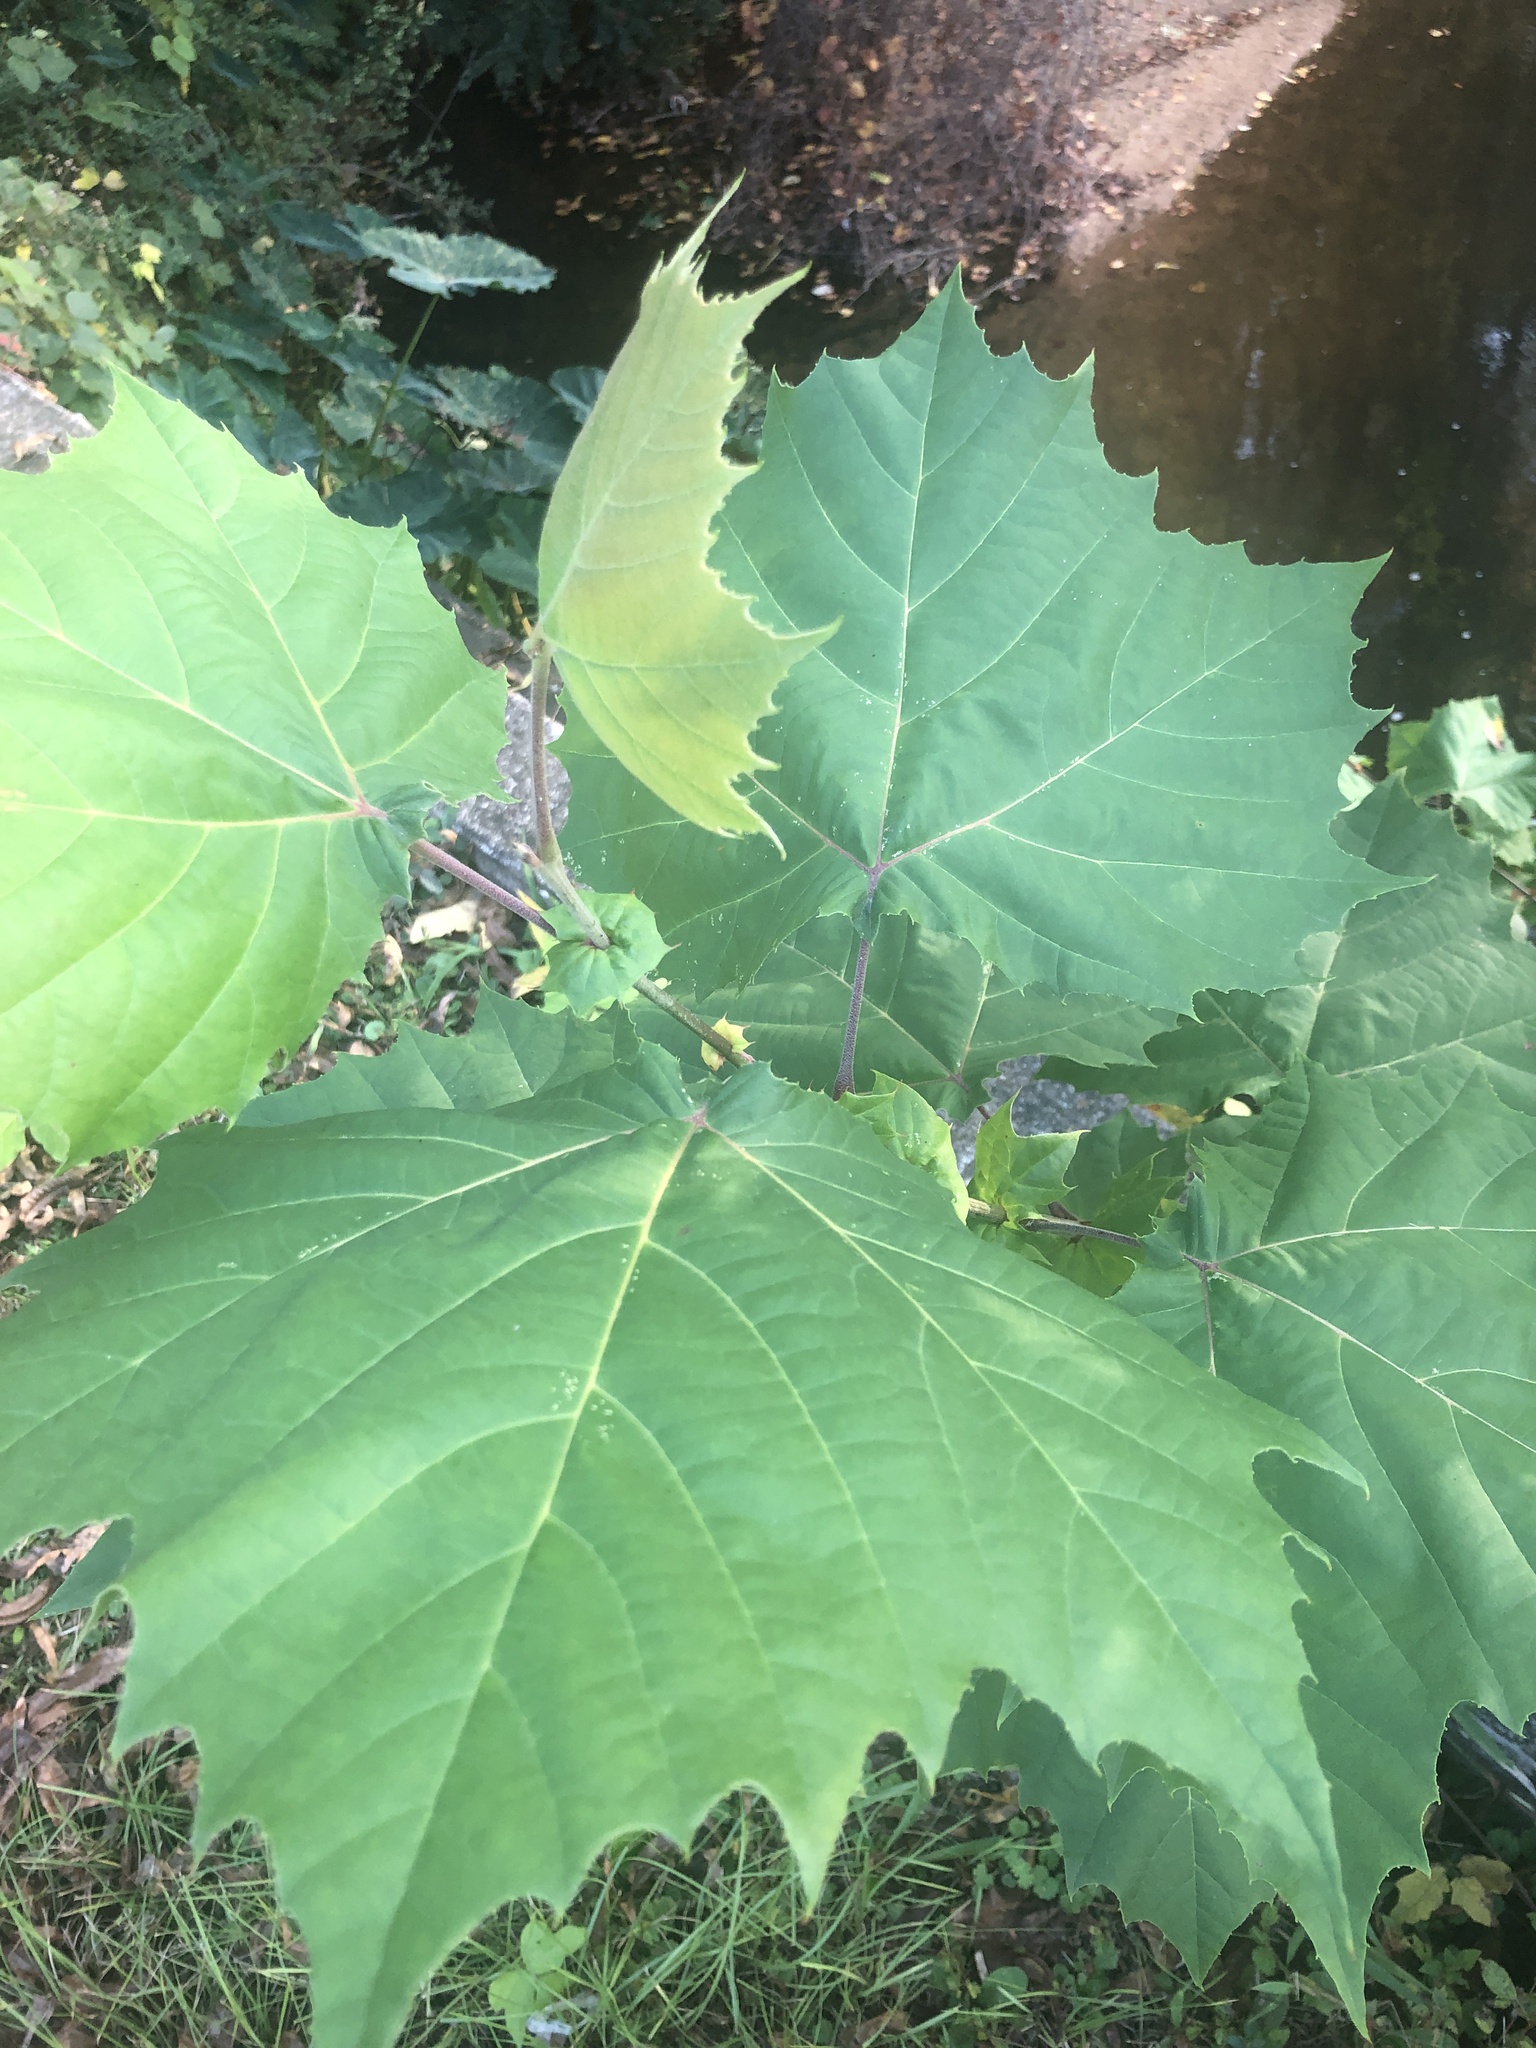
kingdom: Plantae
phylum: Tracheophyta
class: Magnoliopsida
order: Proteales
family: Platanaceae
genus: Platanus
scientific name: Platanus occidentalis
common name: American sycamore
